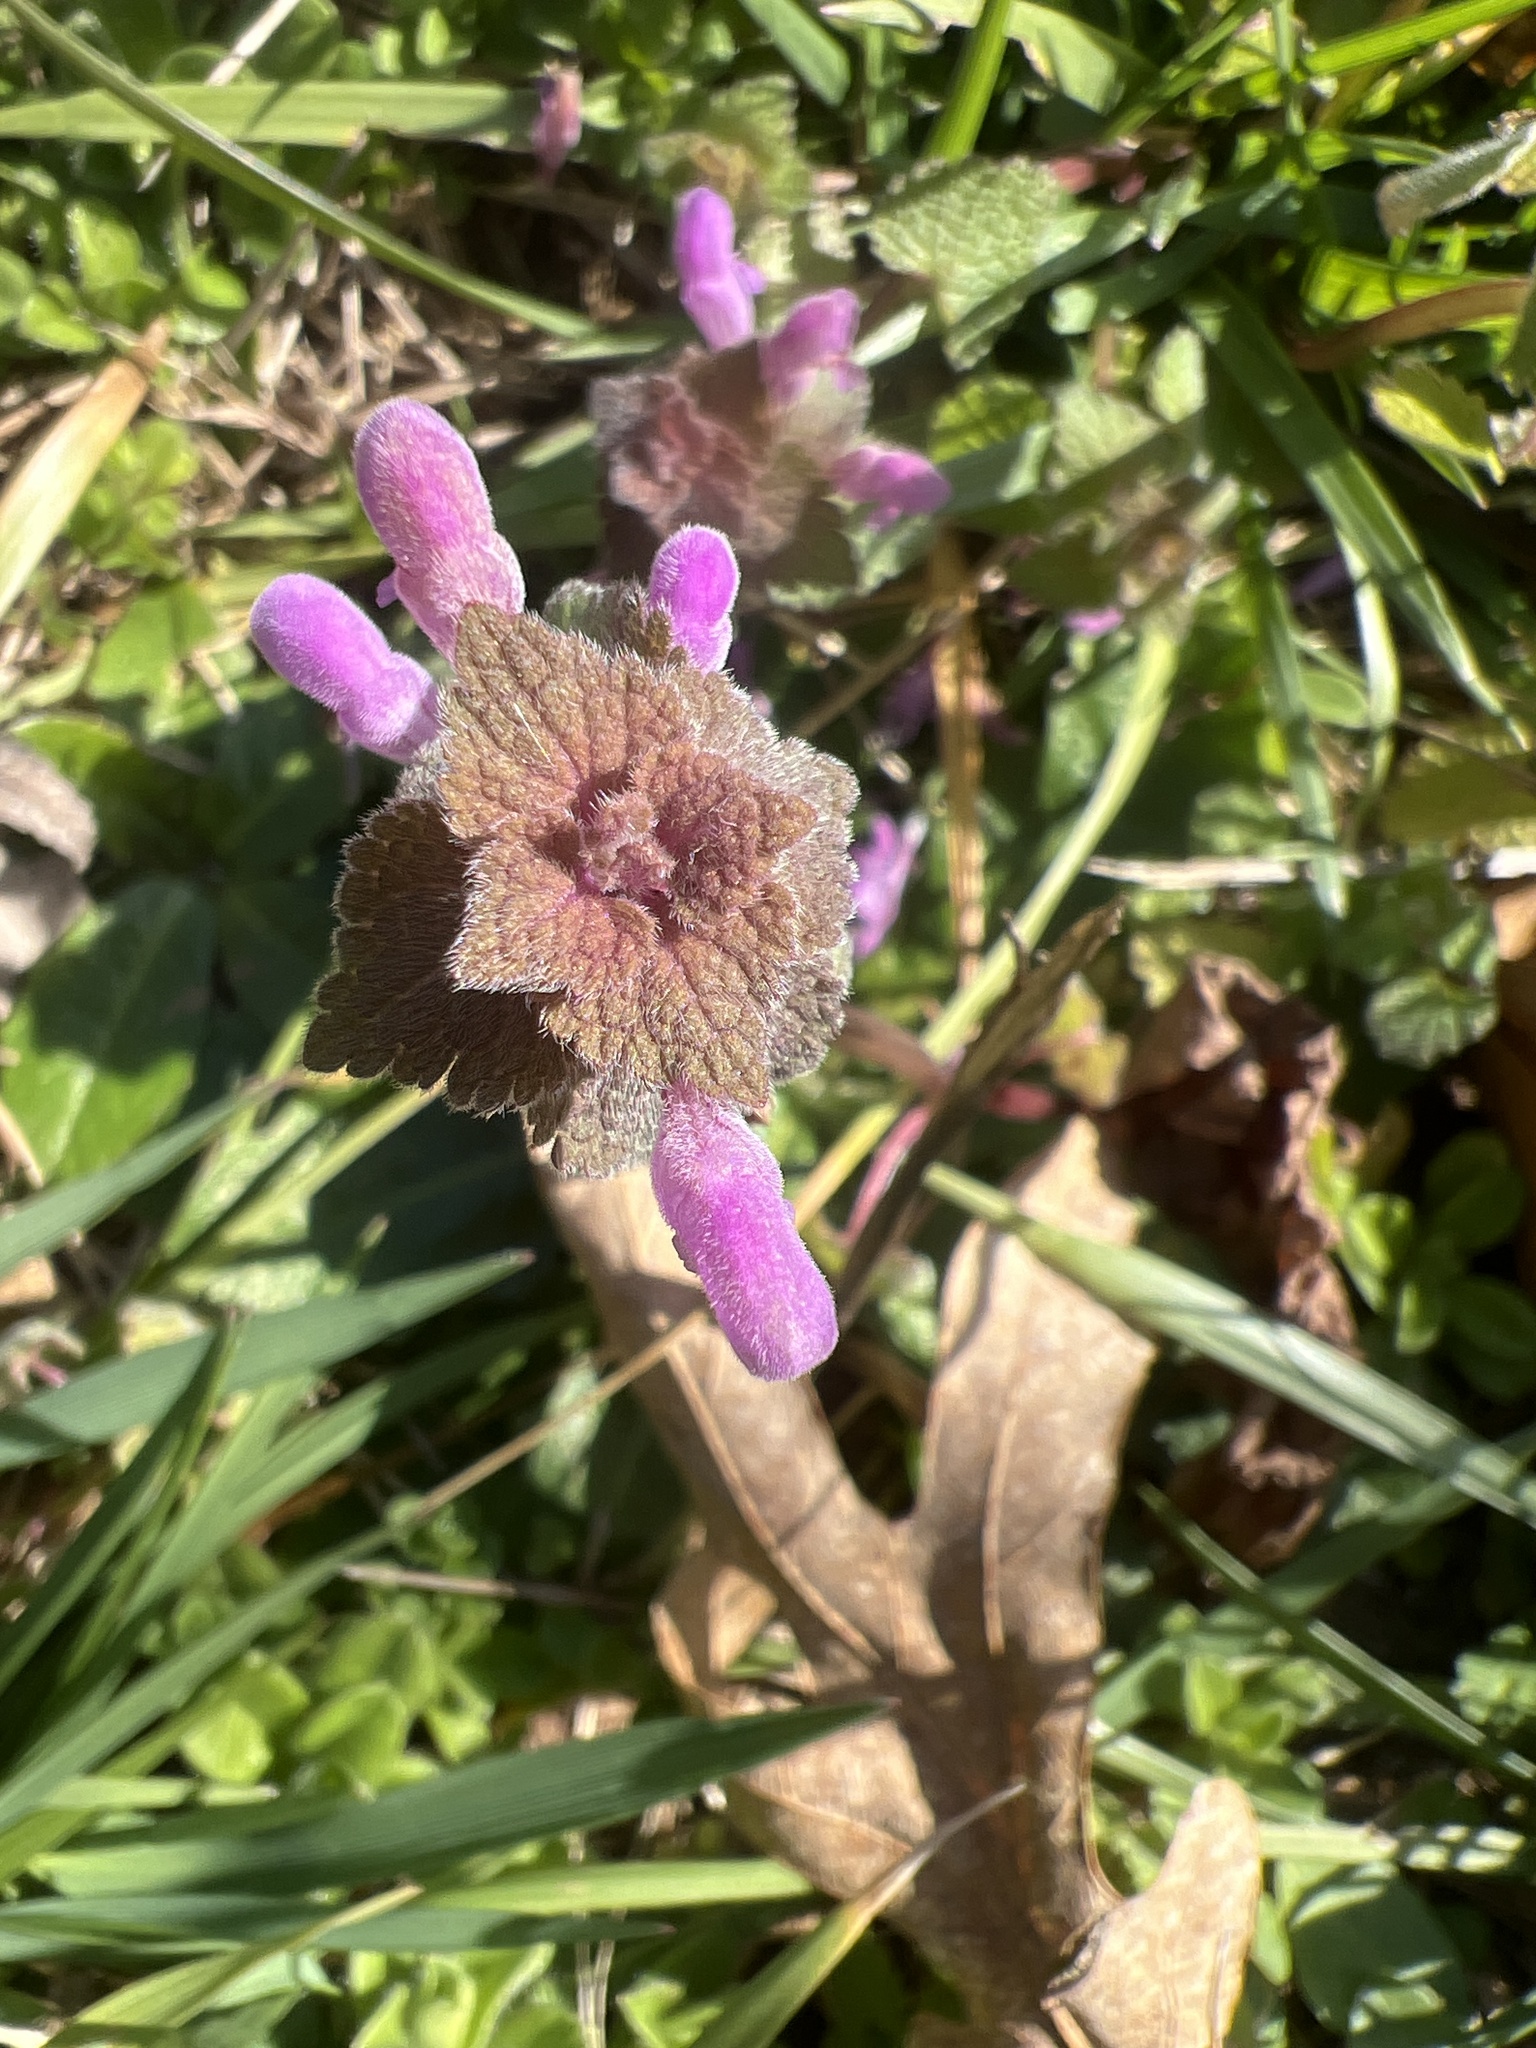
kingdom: Plantae
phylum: Tracheophyta
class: Magnoliopsida
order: Lamiales
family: Lamiaceae
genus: Lamium
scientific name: Lamium purpureum
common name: Red dead-nettle
